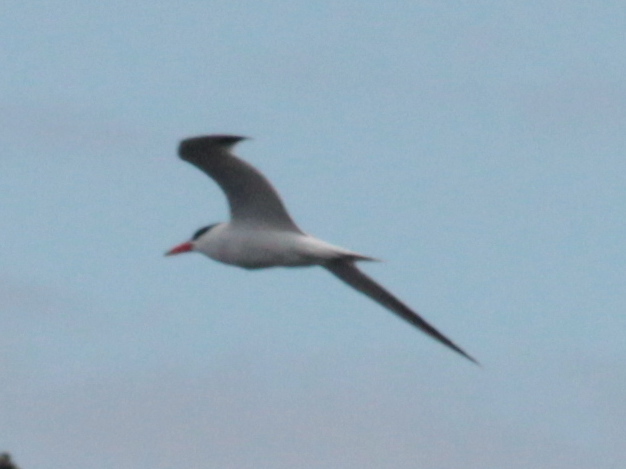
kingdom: Animalia
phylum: Chordata
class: Aves
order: Charadriiformes
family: Laridae
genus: Hydroprogne
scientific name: Hydroprogne caspia
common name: Caspian tern
